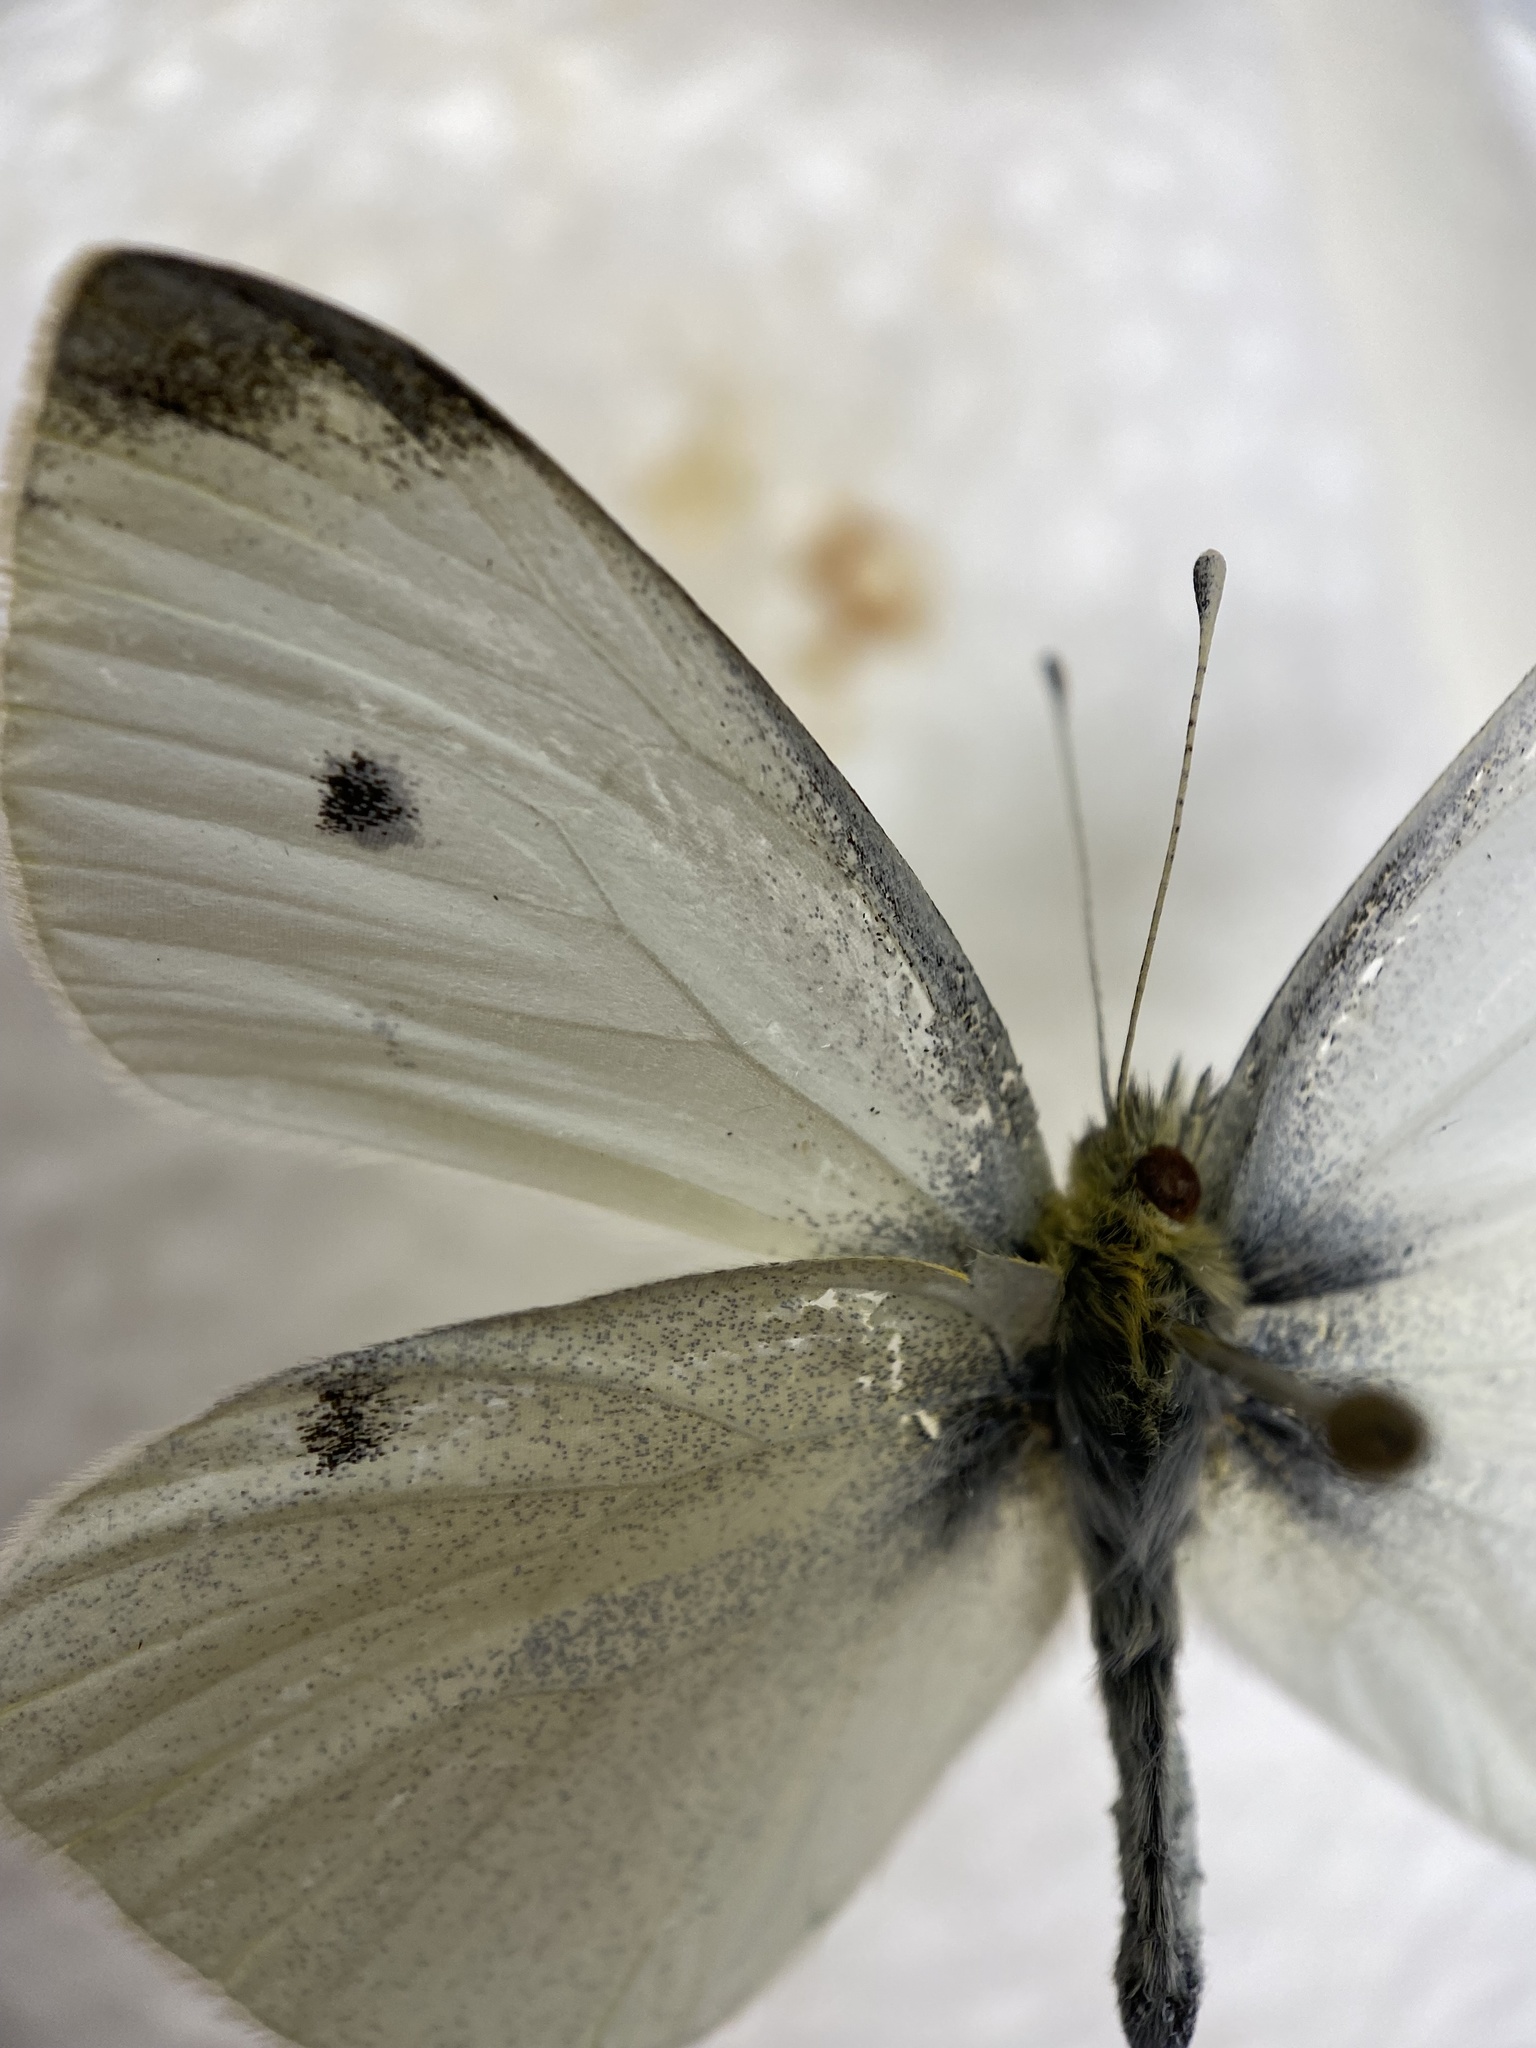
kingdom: Animalia
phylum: Arthropoda
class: Insecta
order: Lepidoptera
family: Pieridae
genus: Pieris
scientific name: Pieris rapae
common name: Small white
